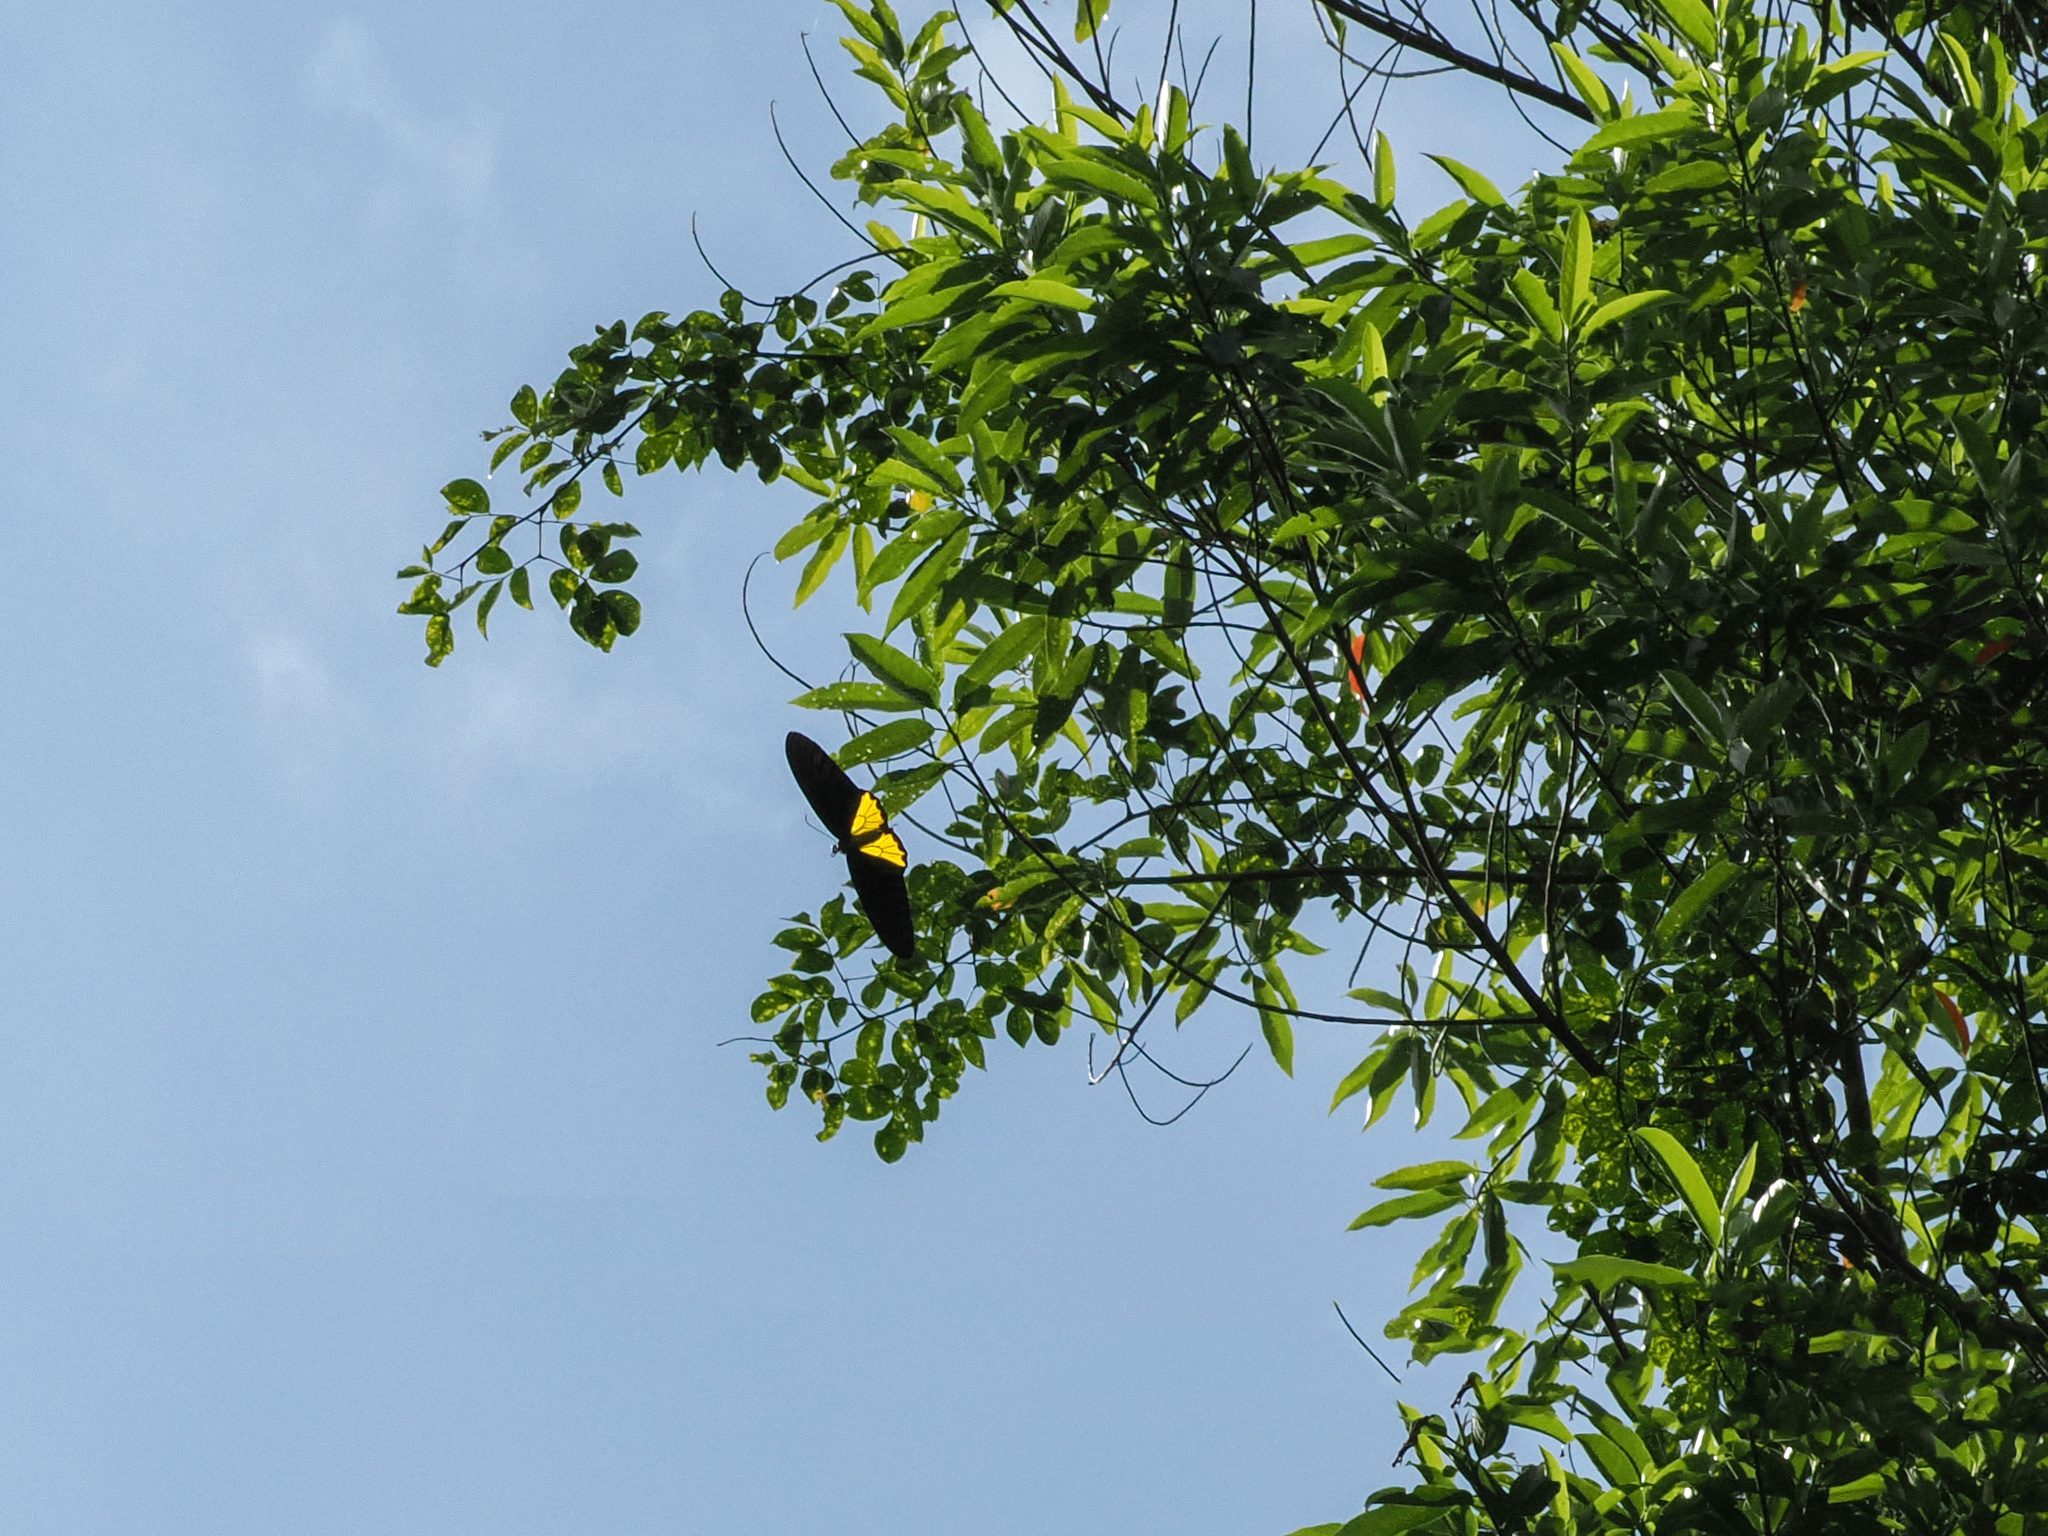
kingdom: Animalia
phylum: Arthropoda
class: Insecta
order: Lepidoptera
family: Papilionidae
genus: Troides
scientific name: Troides helena
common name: Common birdwing
